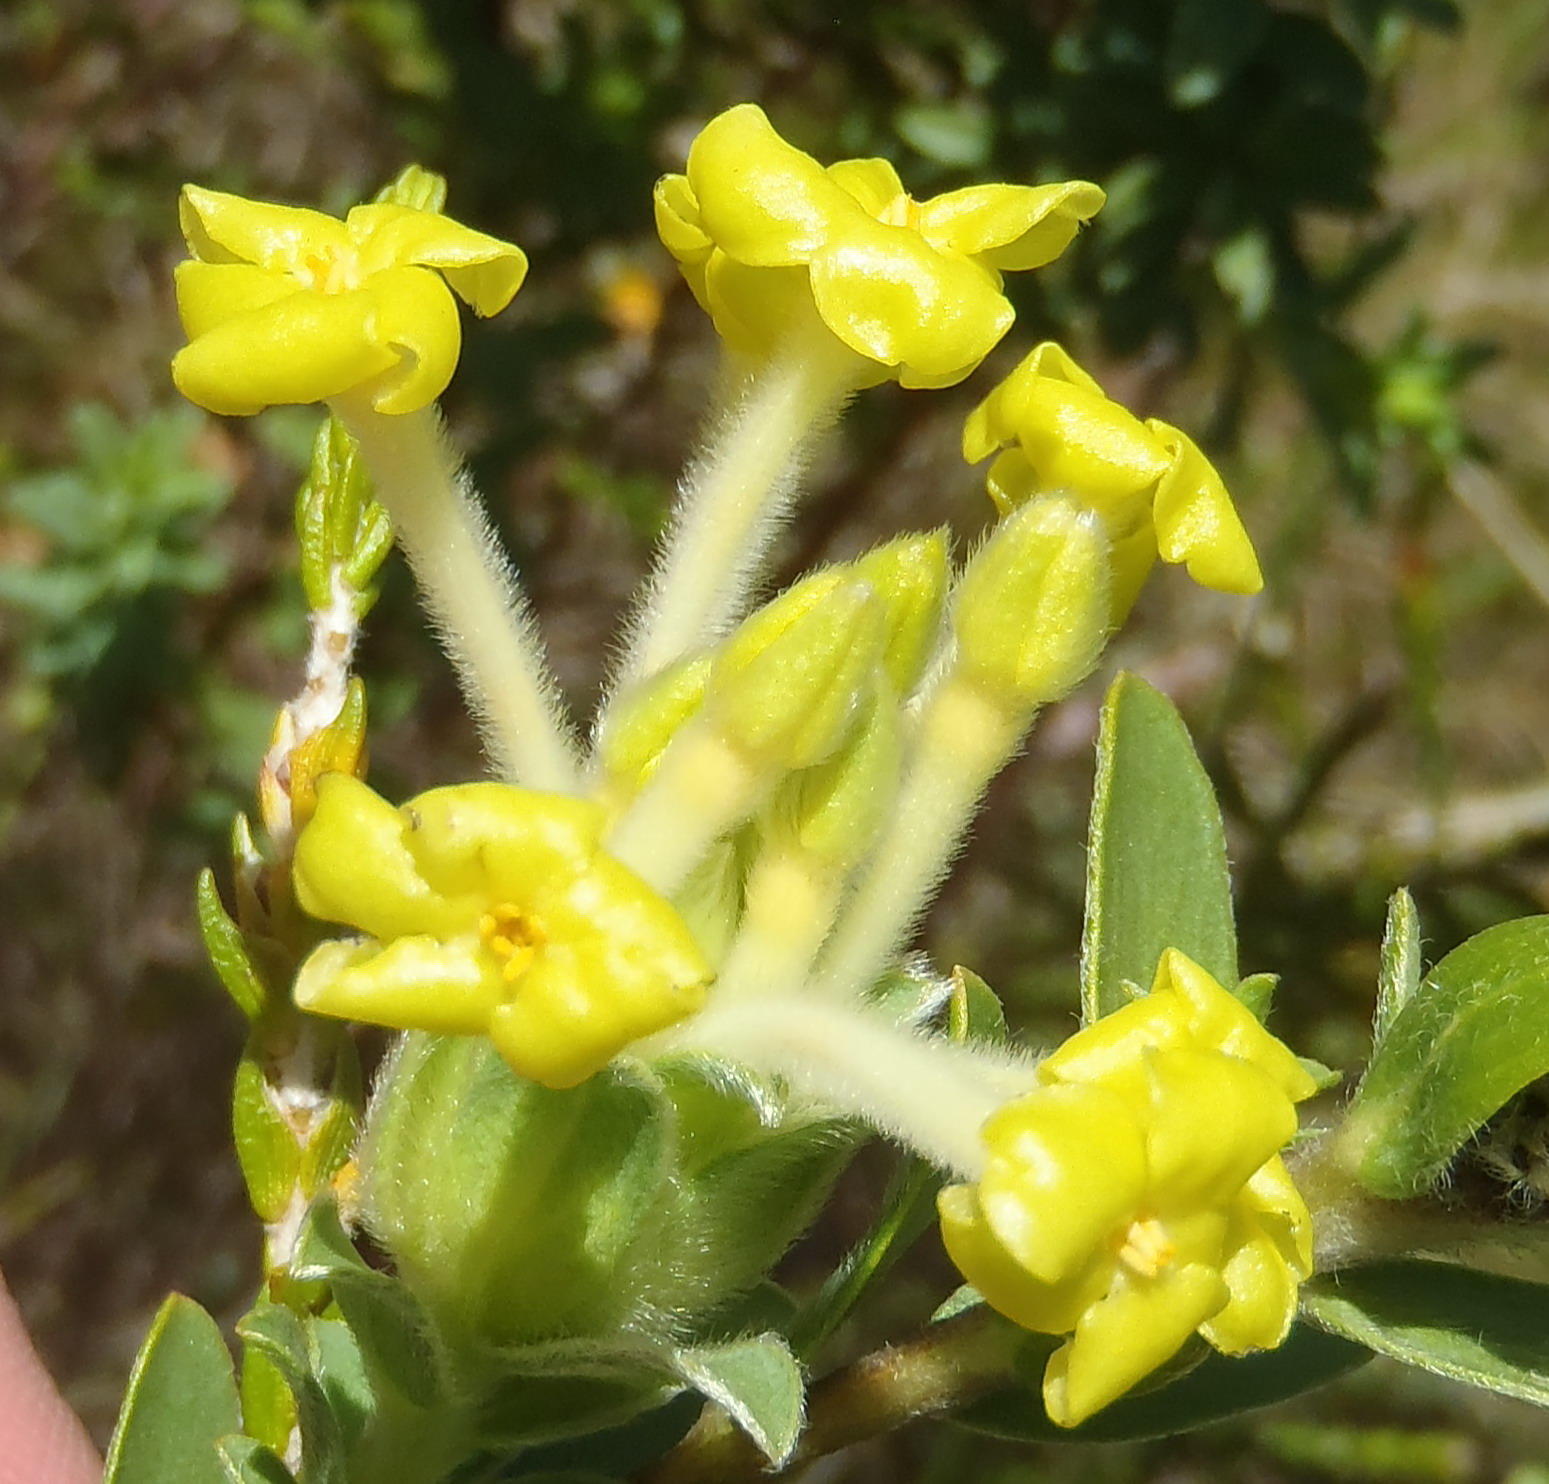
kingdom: Plantae
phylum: Tracheophyta
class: Magnoliopsida
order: Malvales
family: Thymelaeaceae
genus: Gnidia
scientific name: Gnidia anthylloides
